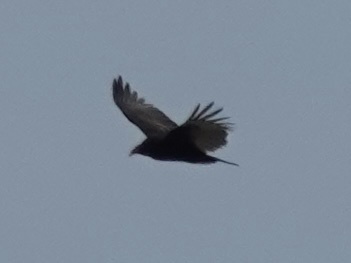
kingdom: Animalia
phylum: Chordata
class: Aves
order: Accipitriformes
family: Cathartidae
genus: Cathartes
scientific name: Cathartes aura
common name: Turkey vulture
